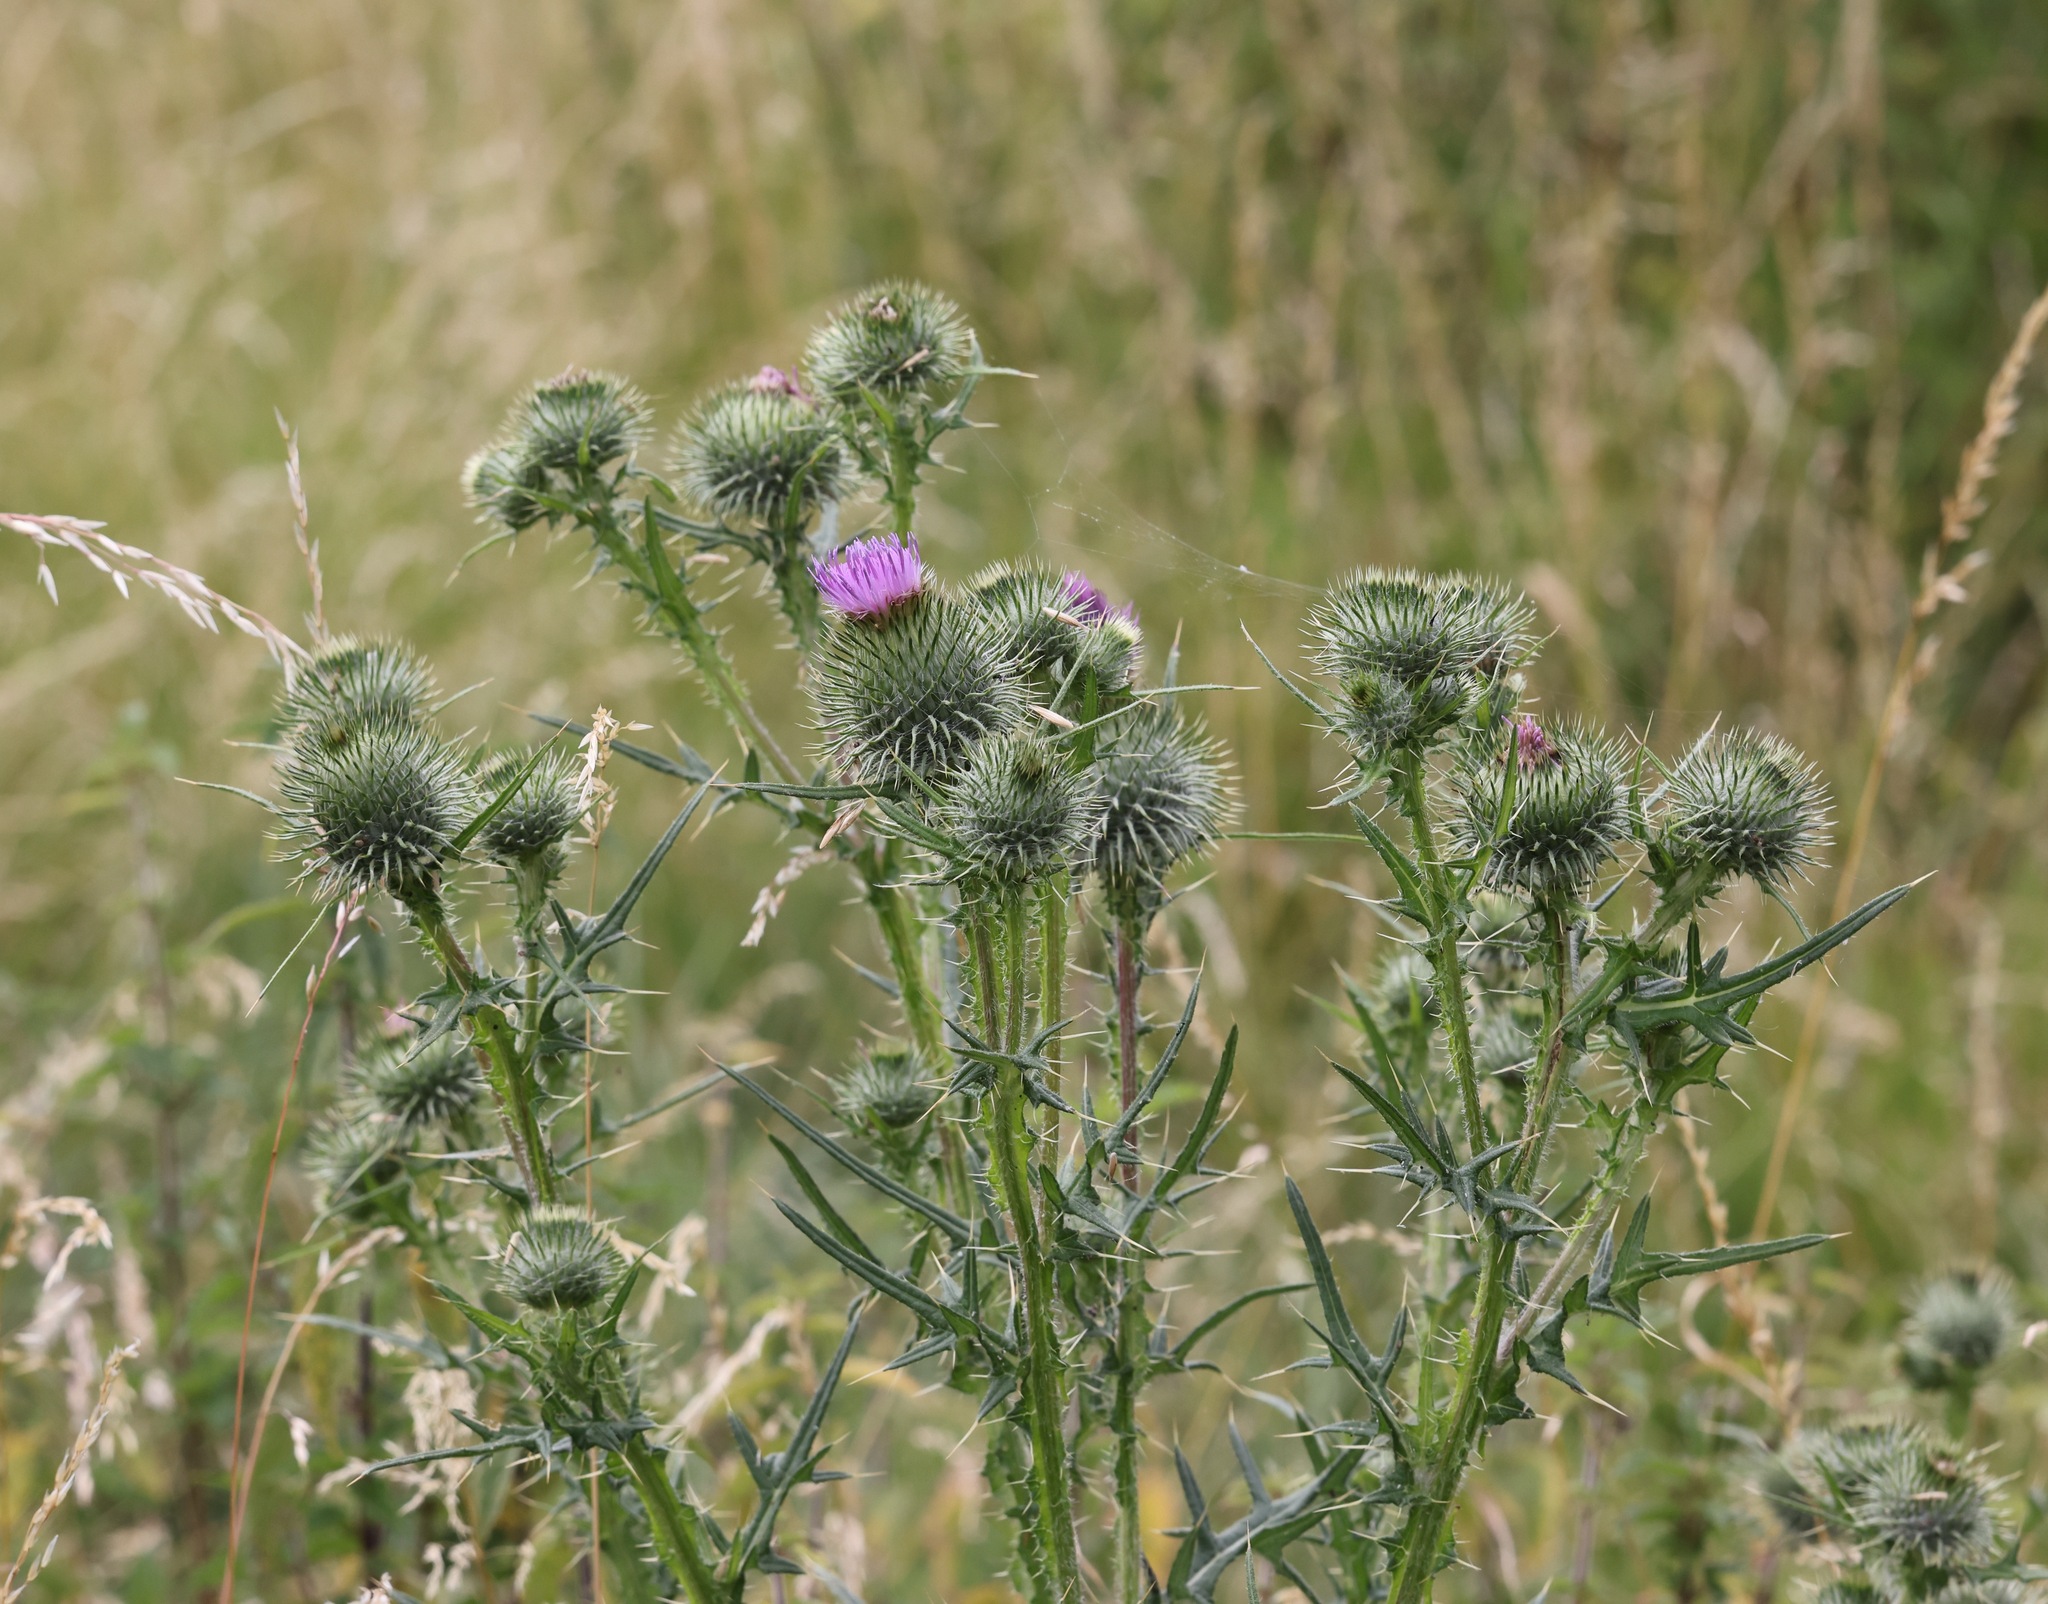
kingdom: Plantae
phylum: Tracheophyta
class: Magnoliopsida
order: Asterales
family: Asteraceae
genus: Cirsium
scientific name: Cirsium vulgare
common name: Bull thistle
